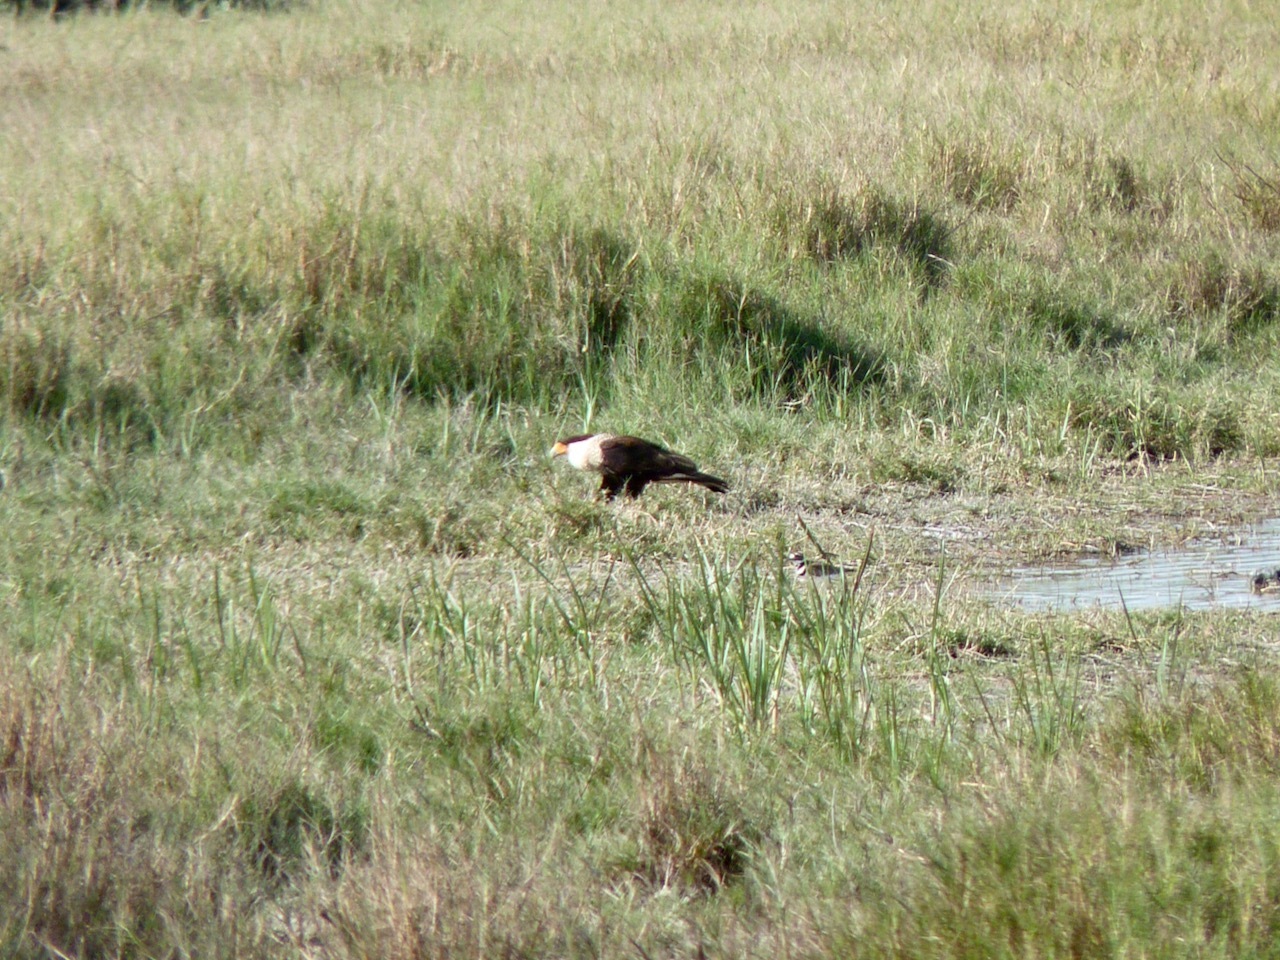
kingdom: Animalia
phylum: Chordata
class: Aves
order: Falconiformes
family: Falconidae
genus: Caracara
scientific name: Caracara plancus
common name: Southern caracara
